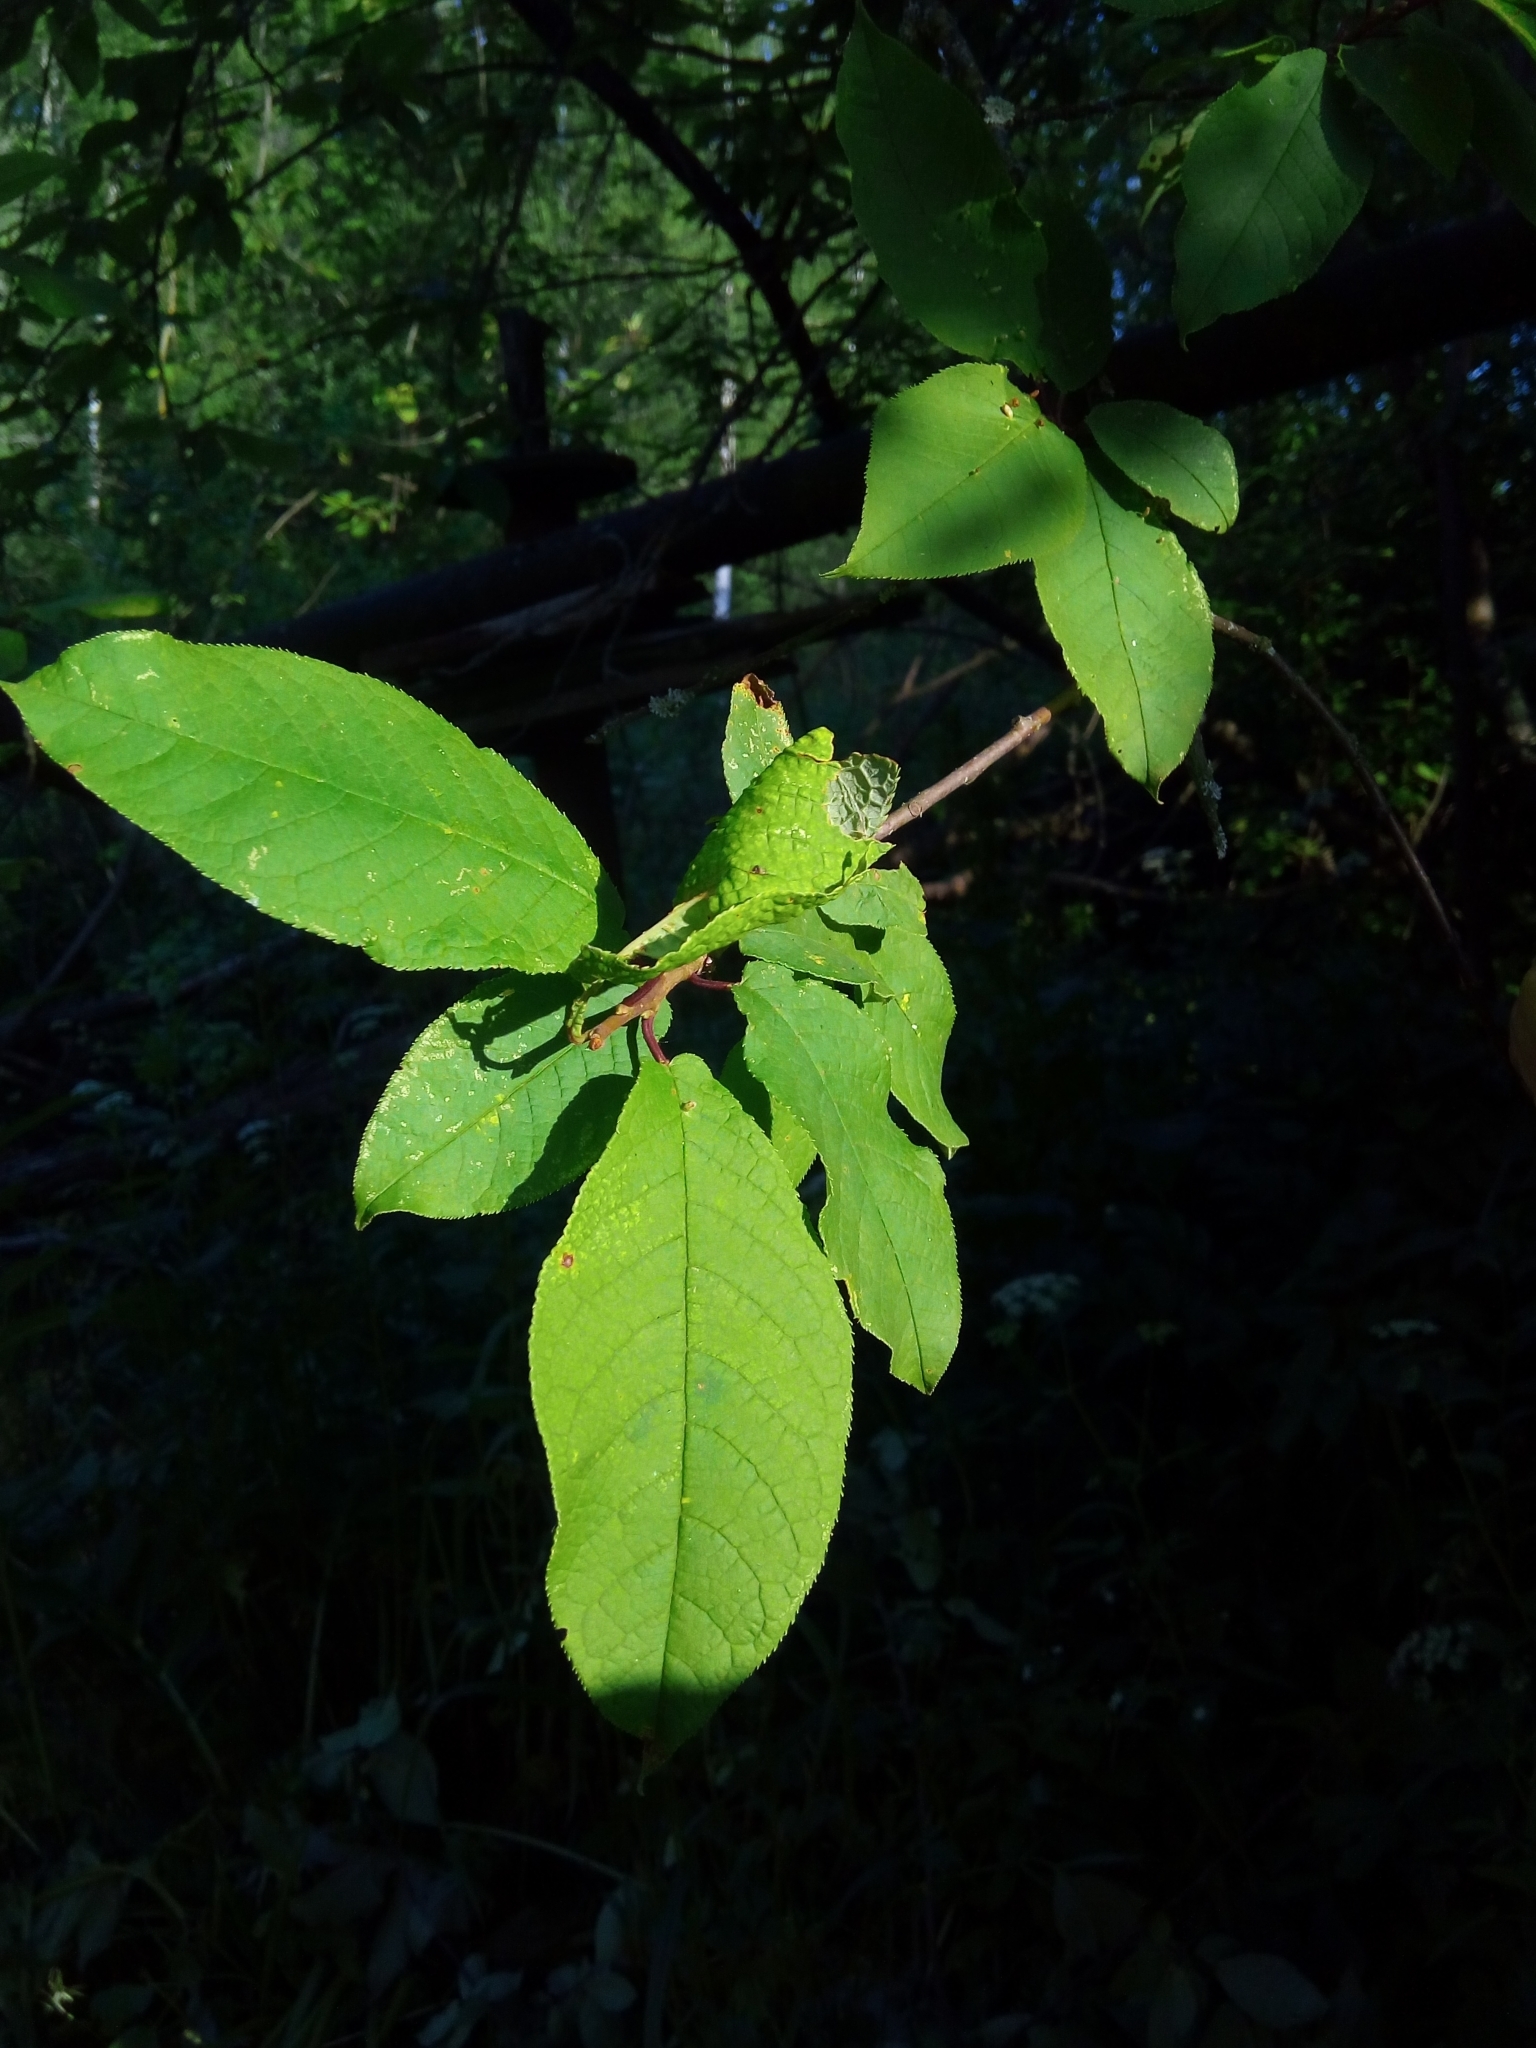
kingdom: Plantae
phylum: Tracheophyta
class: Magnoliopsida
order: Rosales
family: Rosaceae
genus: Prunus
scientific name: Prunus padus
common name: Bird cherry
